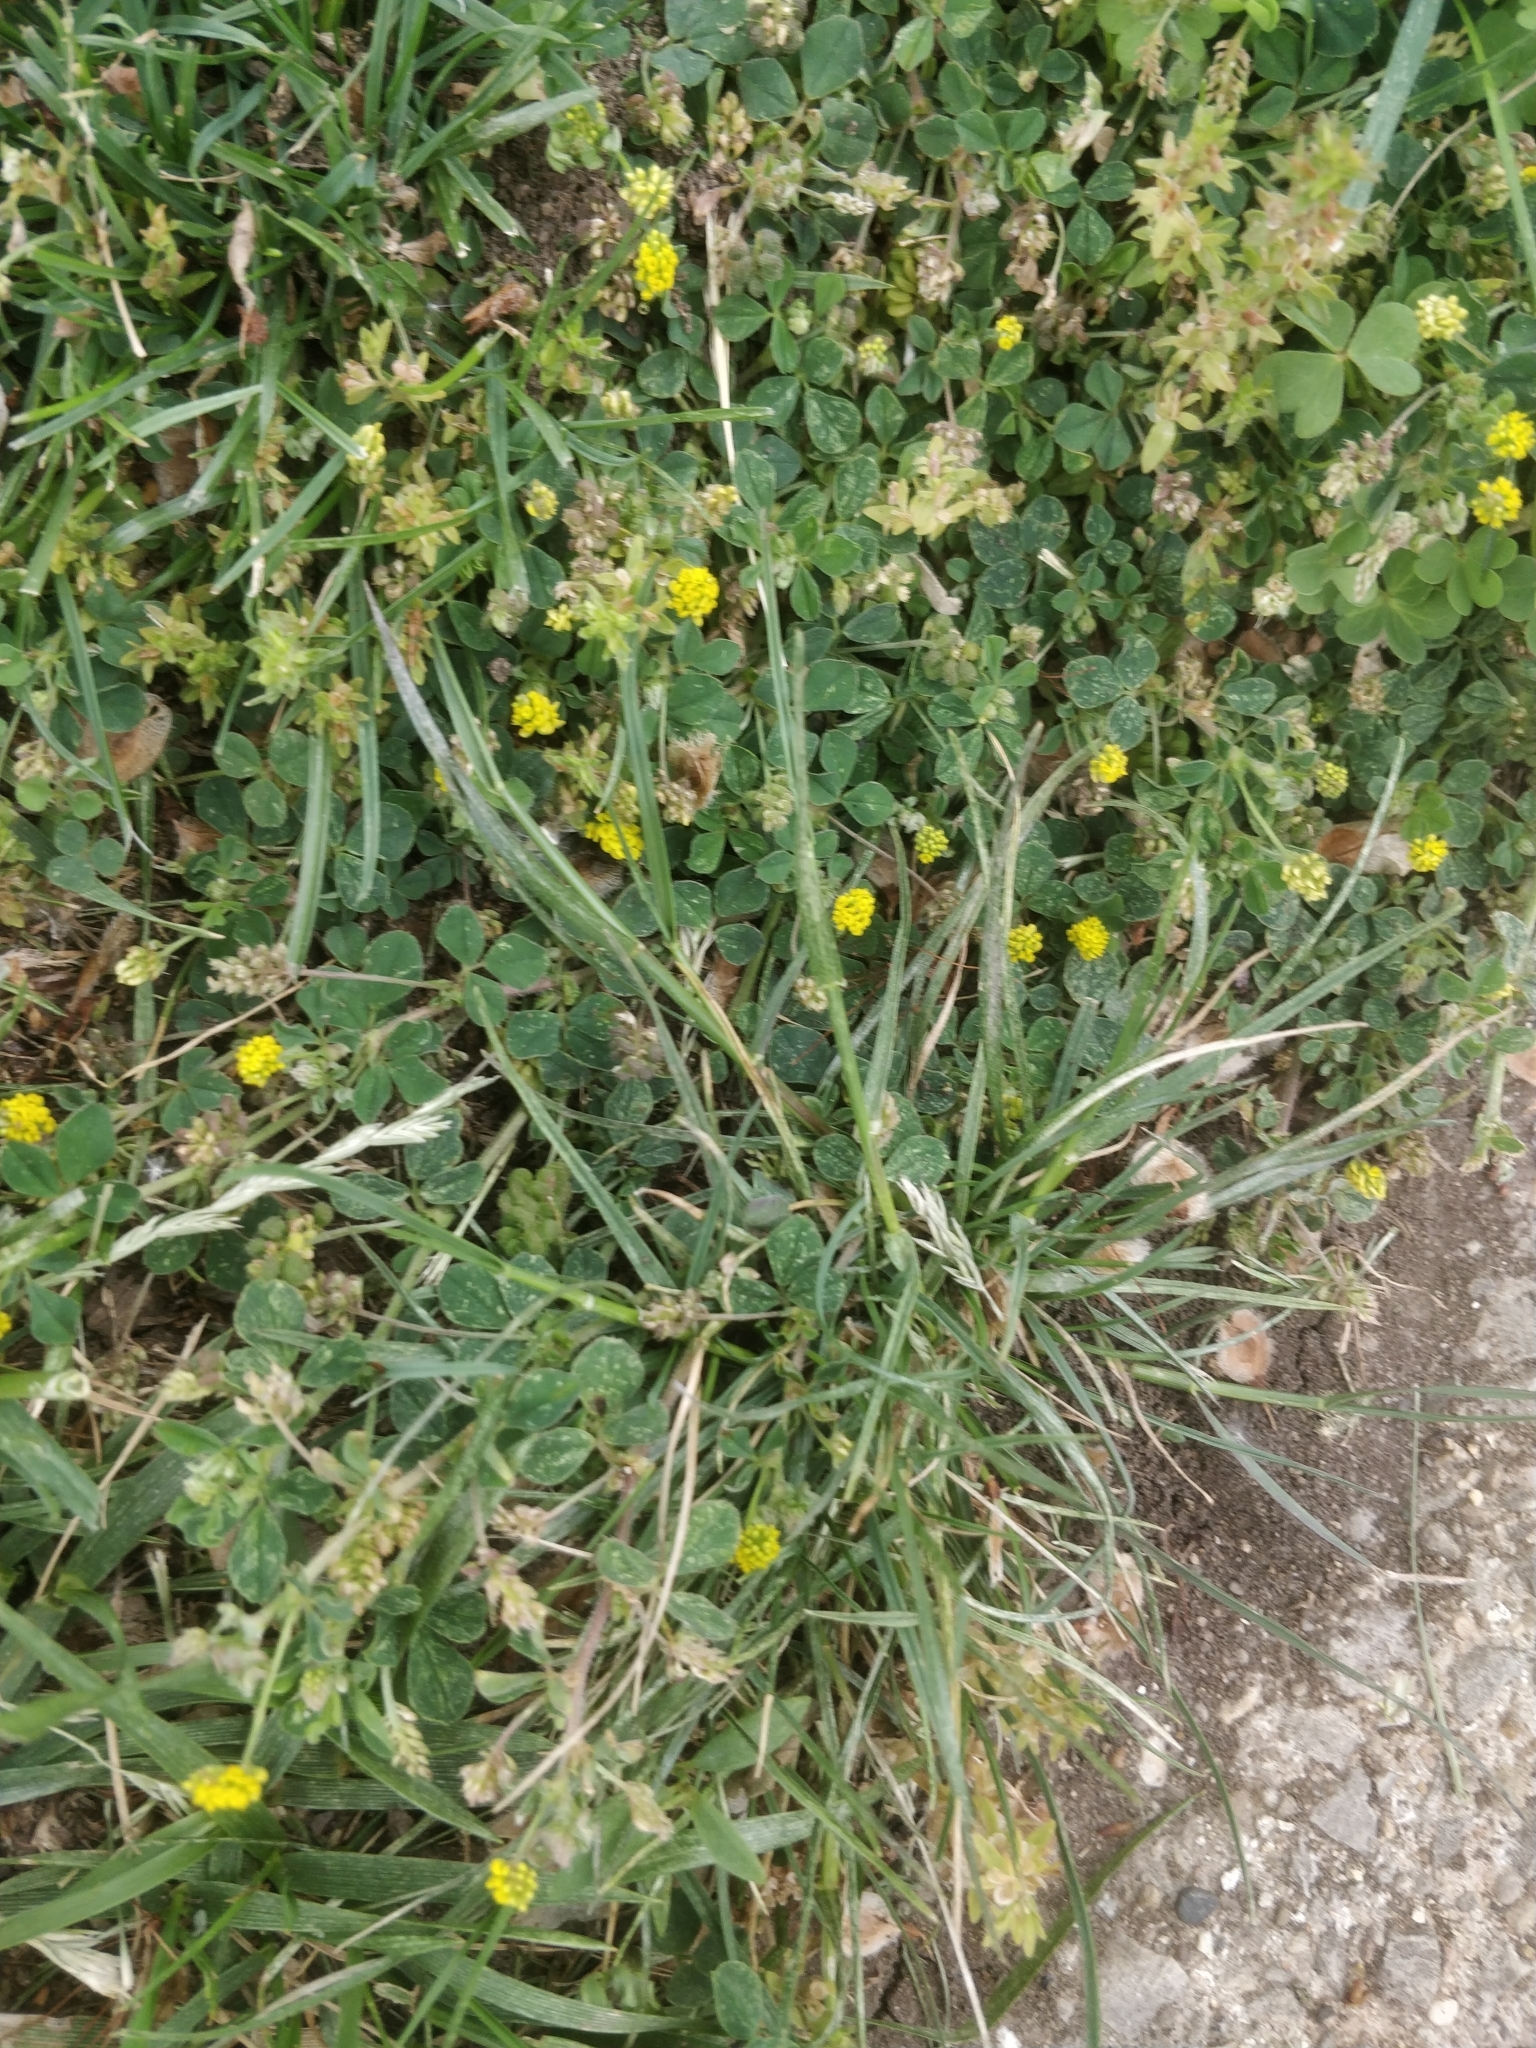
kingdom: Plantae
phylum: Tracheophyta
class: Magnoliopsida
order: Fabales
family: Fabaceae
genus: Medicago
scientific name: Medicago lupulina
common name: Black medick
